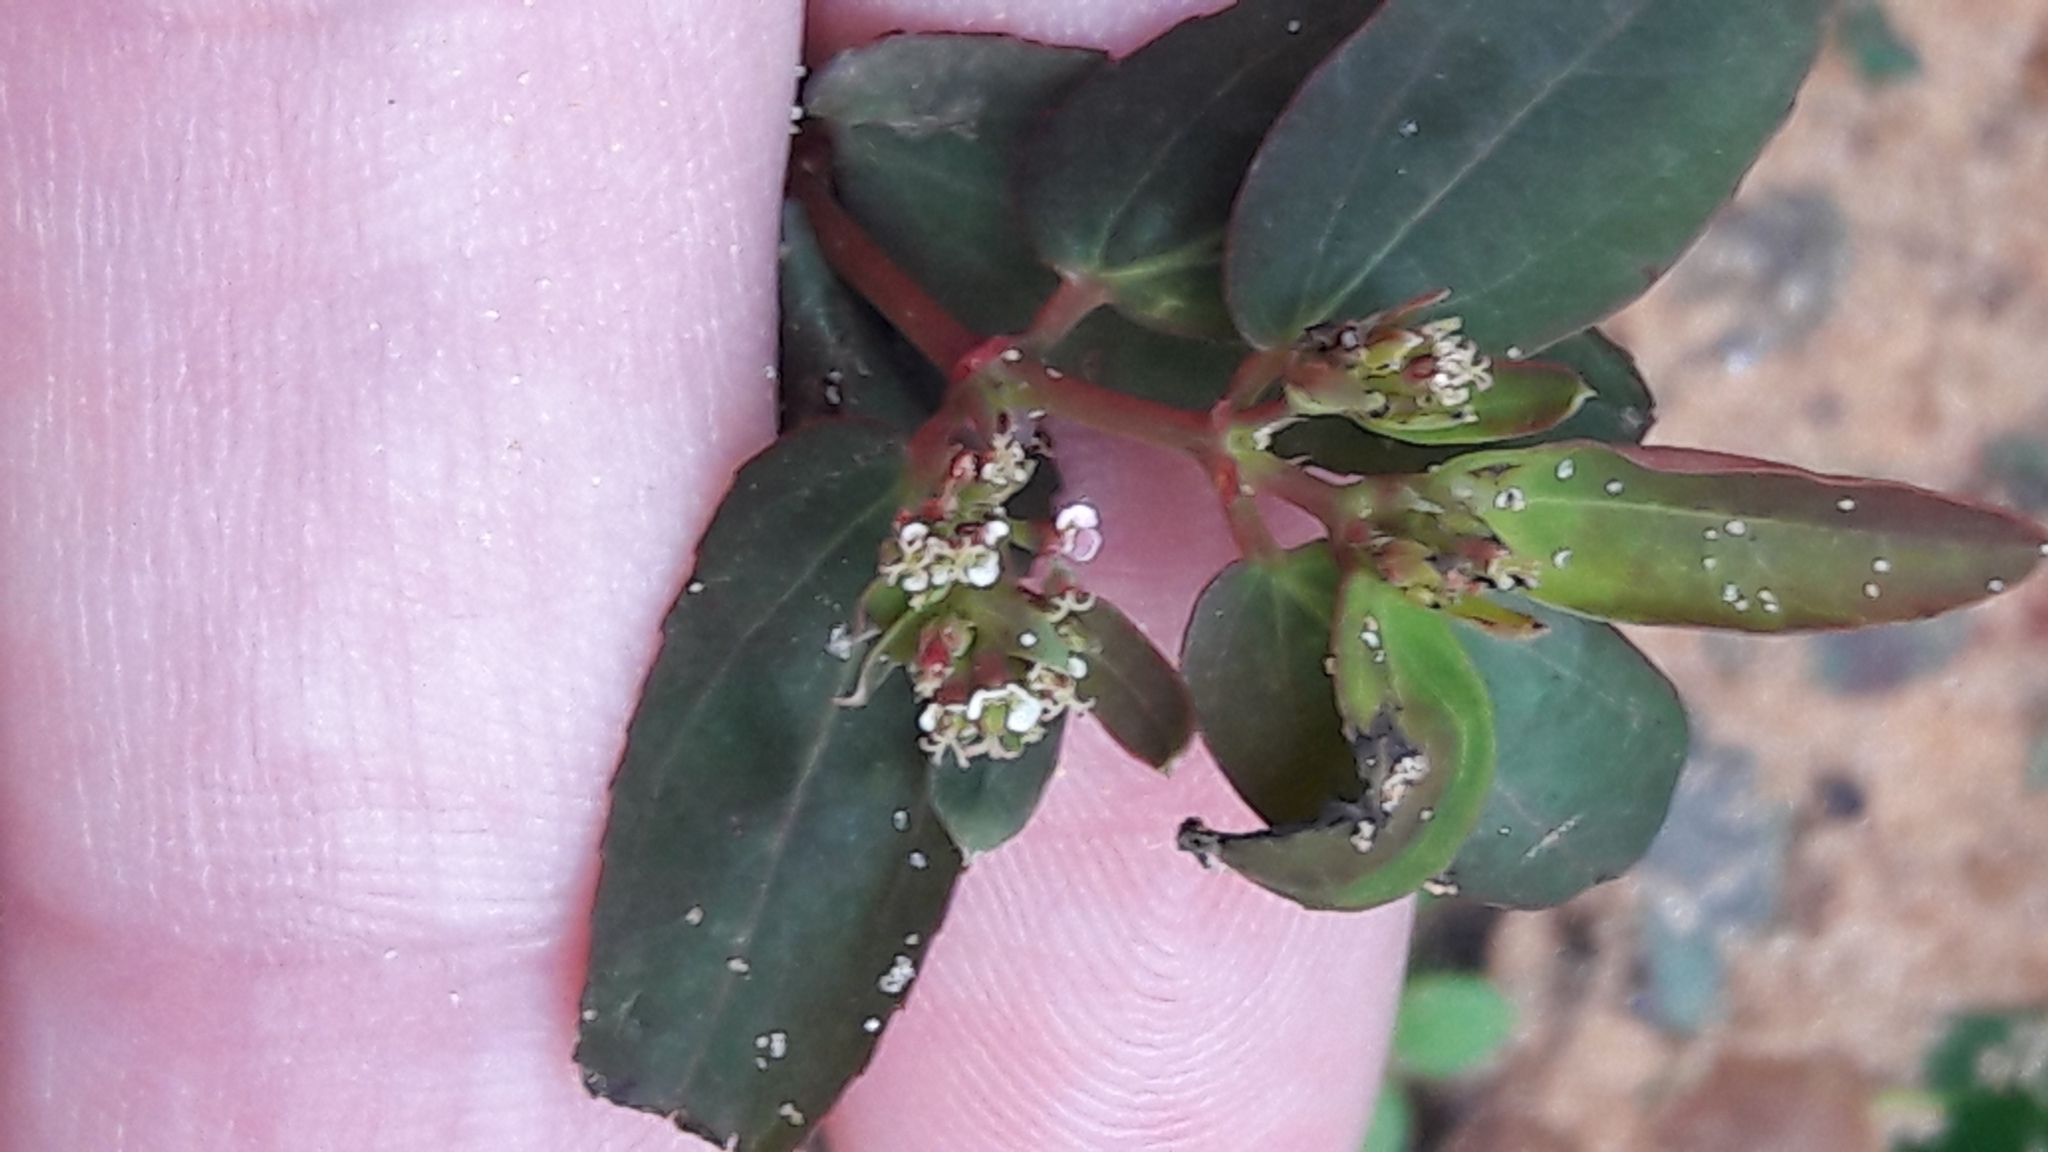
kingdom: Plantae
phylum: Tracheophyta
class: Magnoliopsida
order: Malpighiales
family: Euphorbiaceae
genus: Euphorbia
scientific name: Euphorbia hypericifolia
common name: Graceful sandmat
